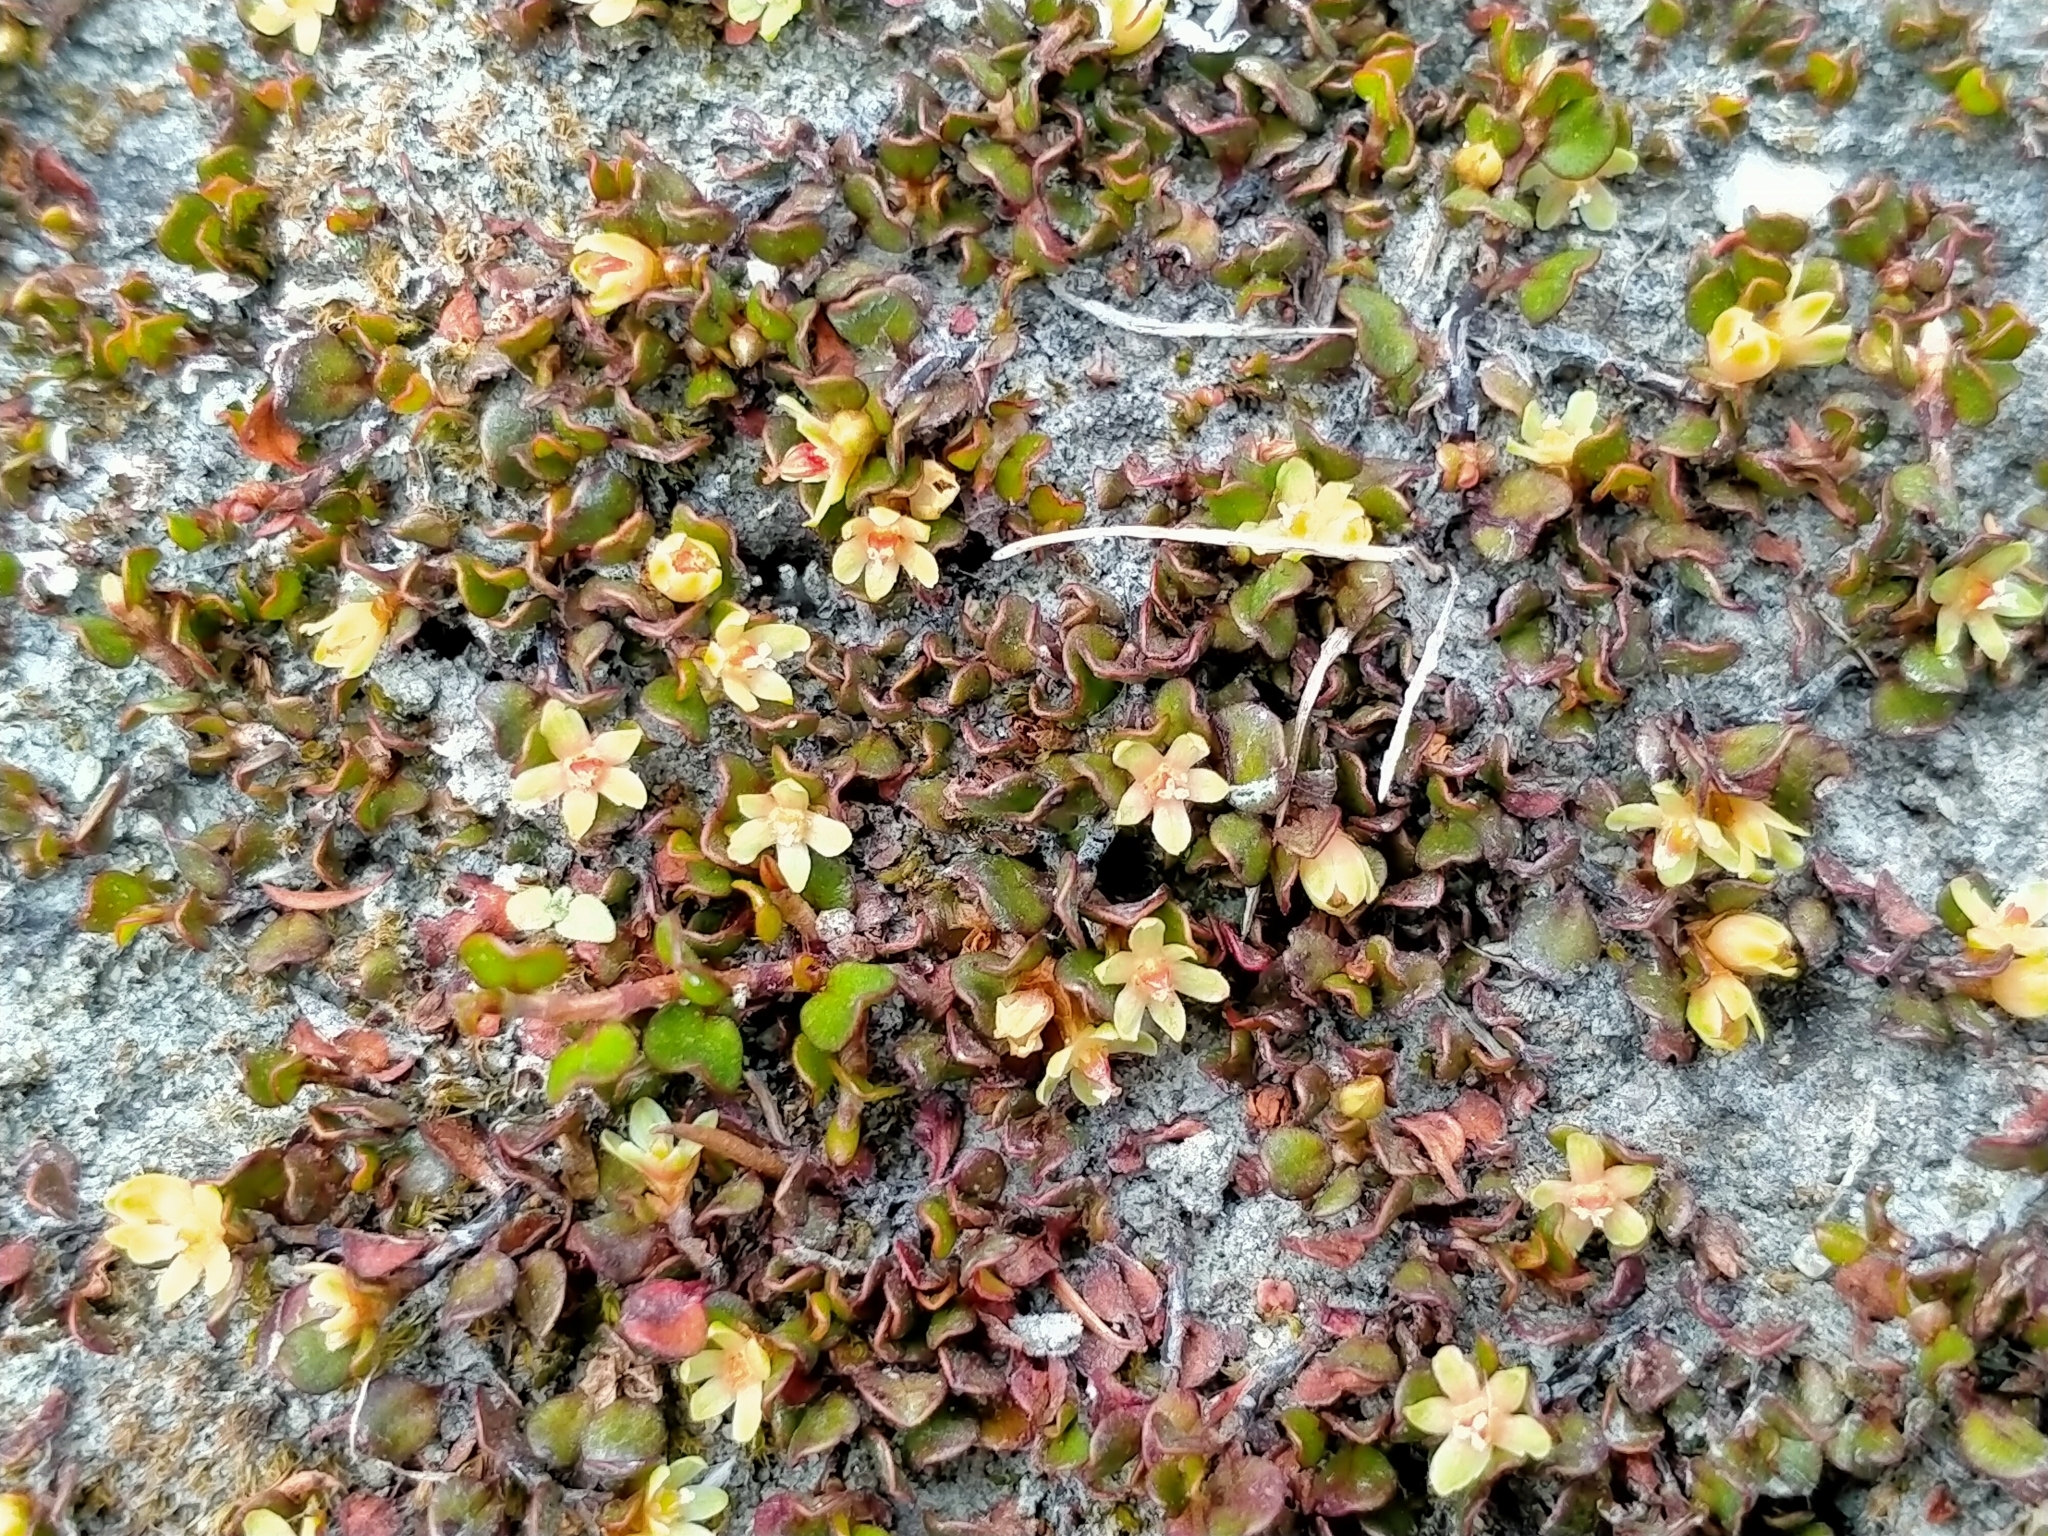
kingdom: Plantae
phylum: Tracheophyta
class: Magnoliopsida
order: Caryophyllales
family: Polygonaceae
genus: Muehlenbeckia
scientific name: Muehlenbeckia axillaris
